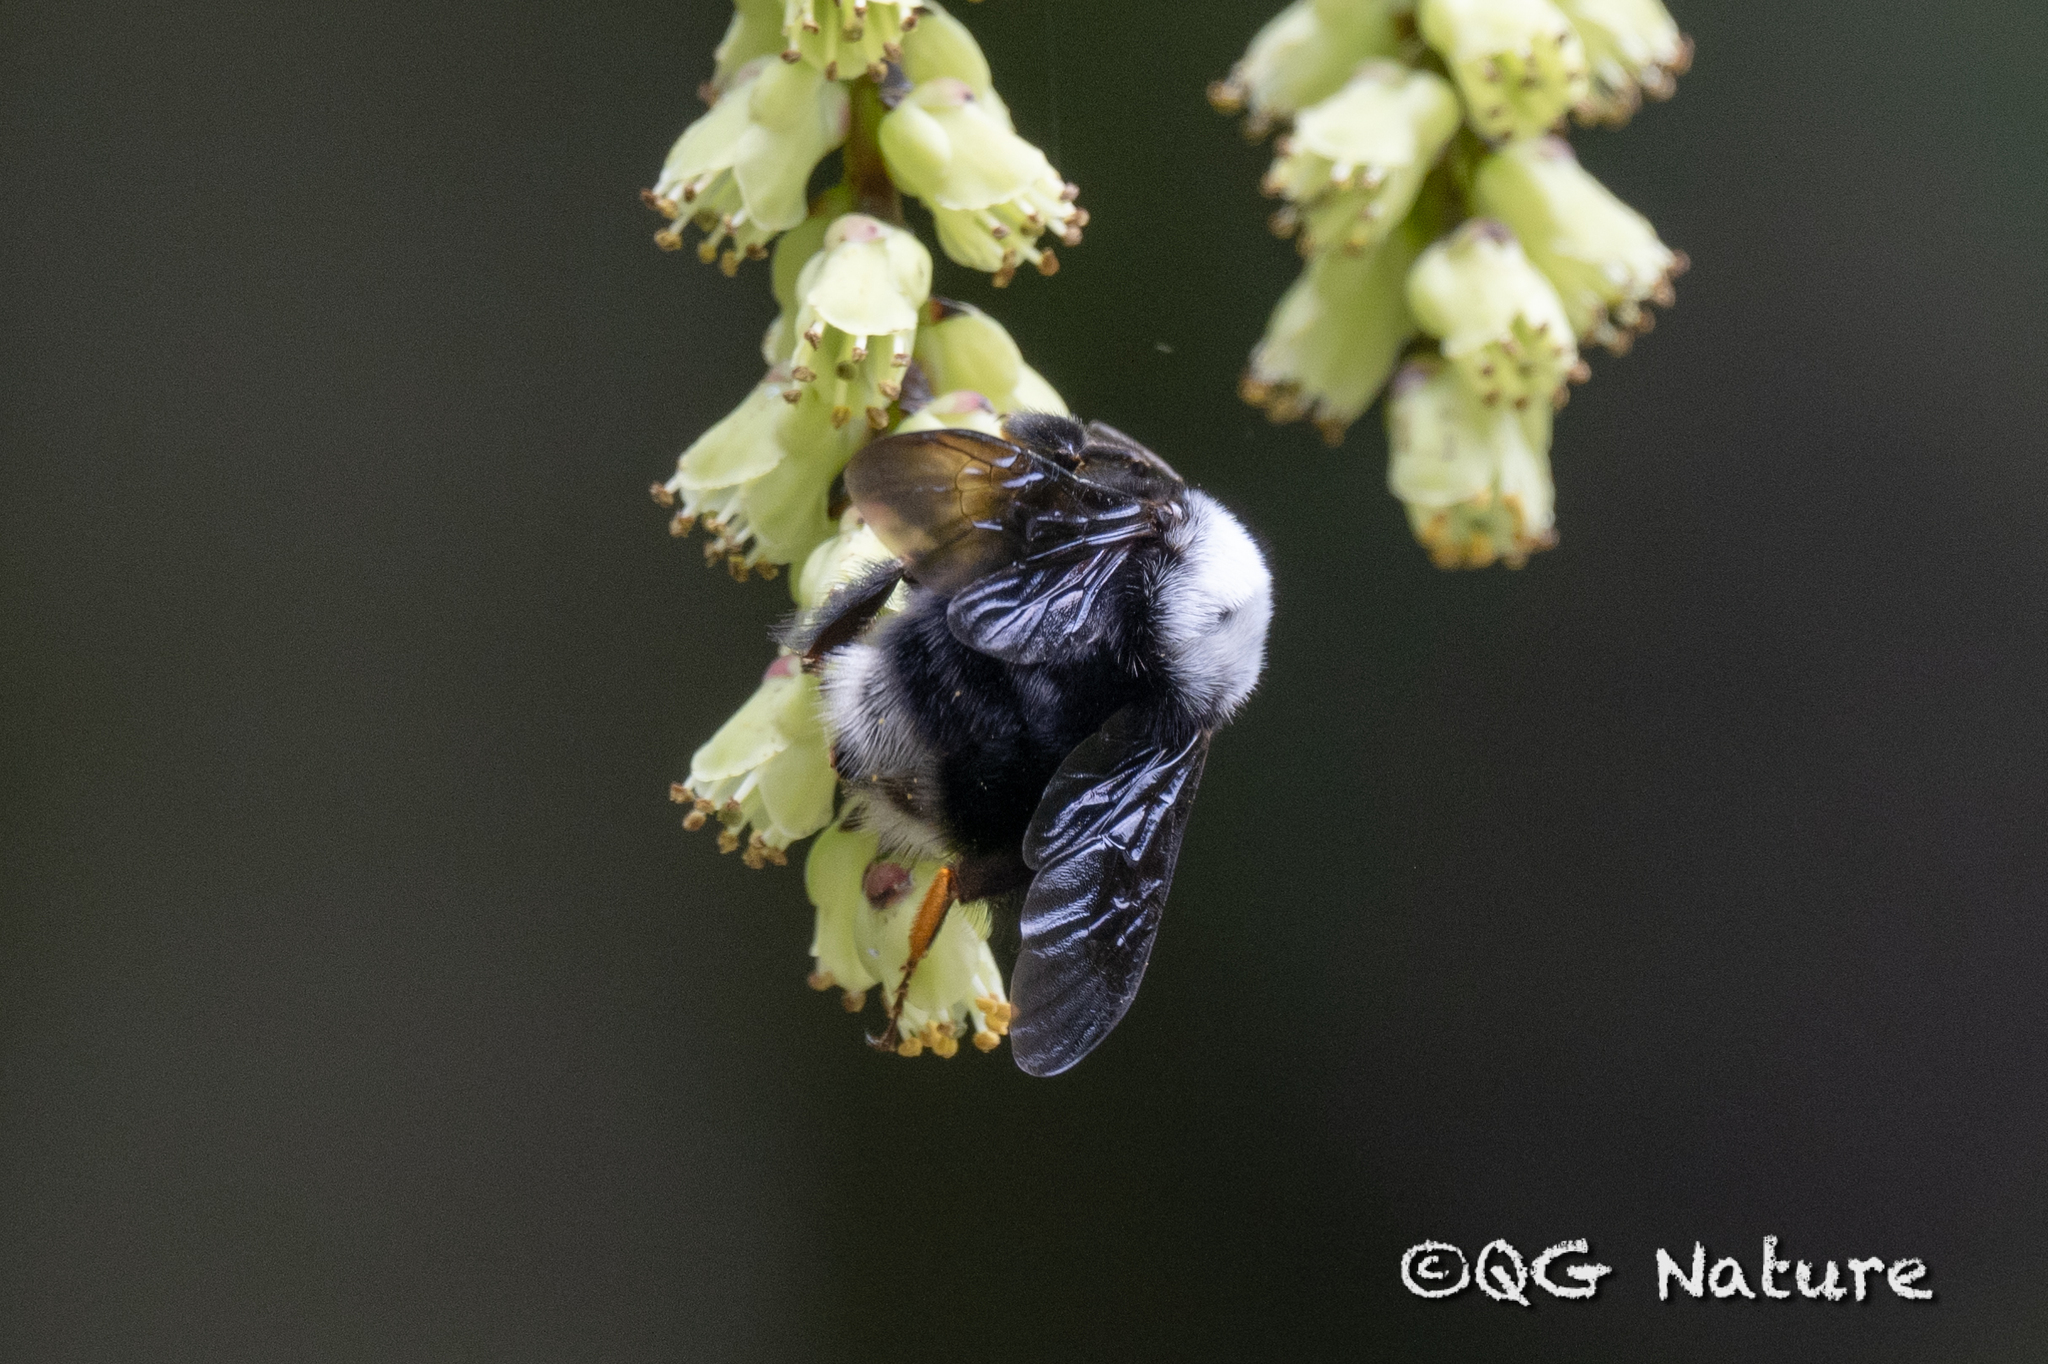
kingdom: Animalia
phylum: Arthropoda
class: Insecta
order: Hymenoptera
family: Apidae
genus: Bombus
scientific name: Bombus festivus
